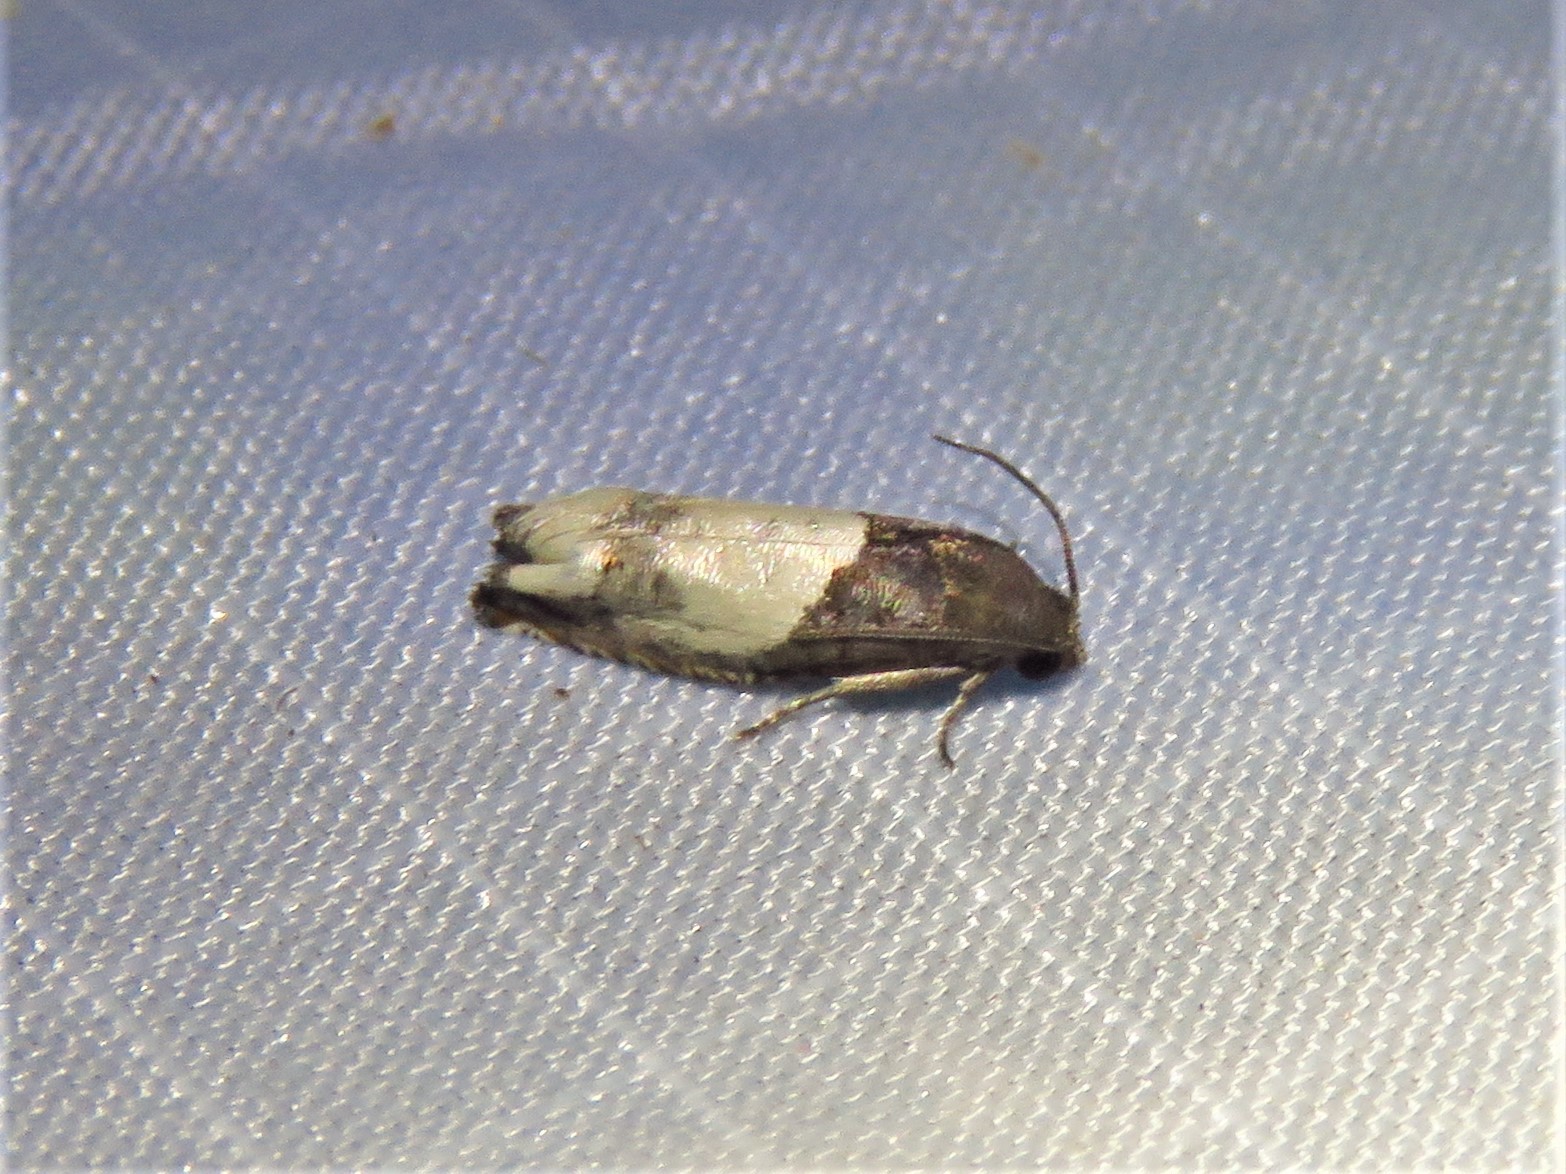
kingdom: Animalia
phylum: Arthropoda
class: Insecta
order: Lepidoptera
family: Tortricidae
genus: Epiblema
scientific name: Epiblema scudderiana
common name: Goldenrod gall moth
